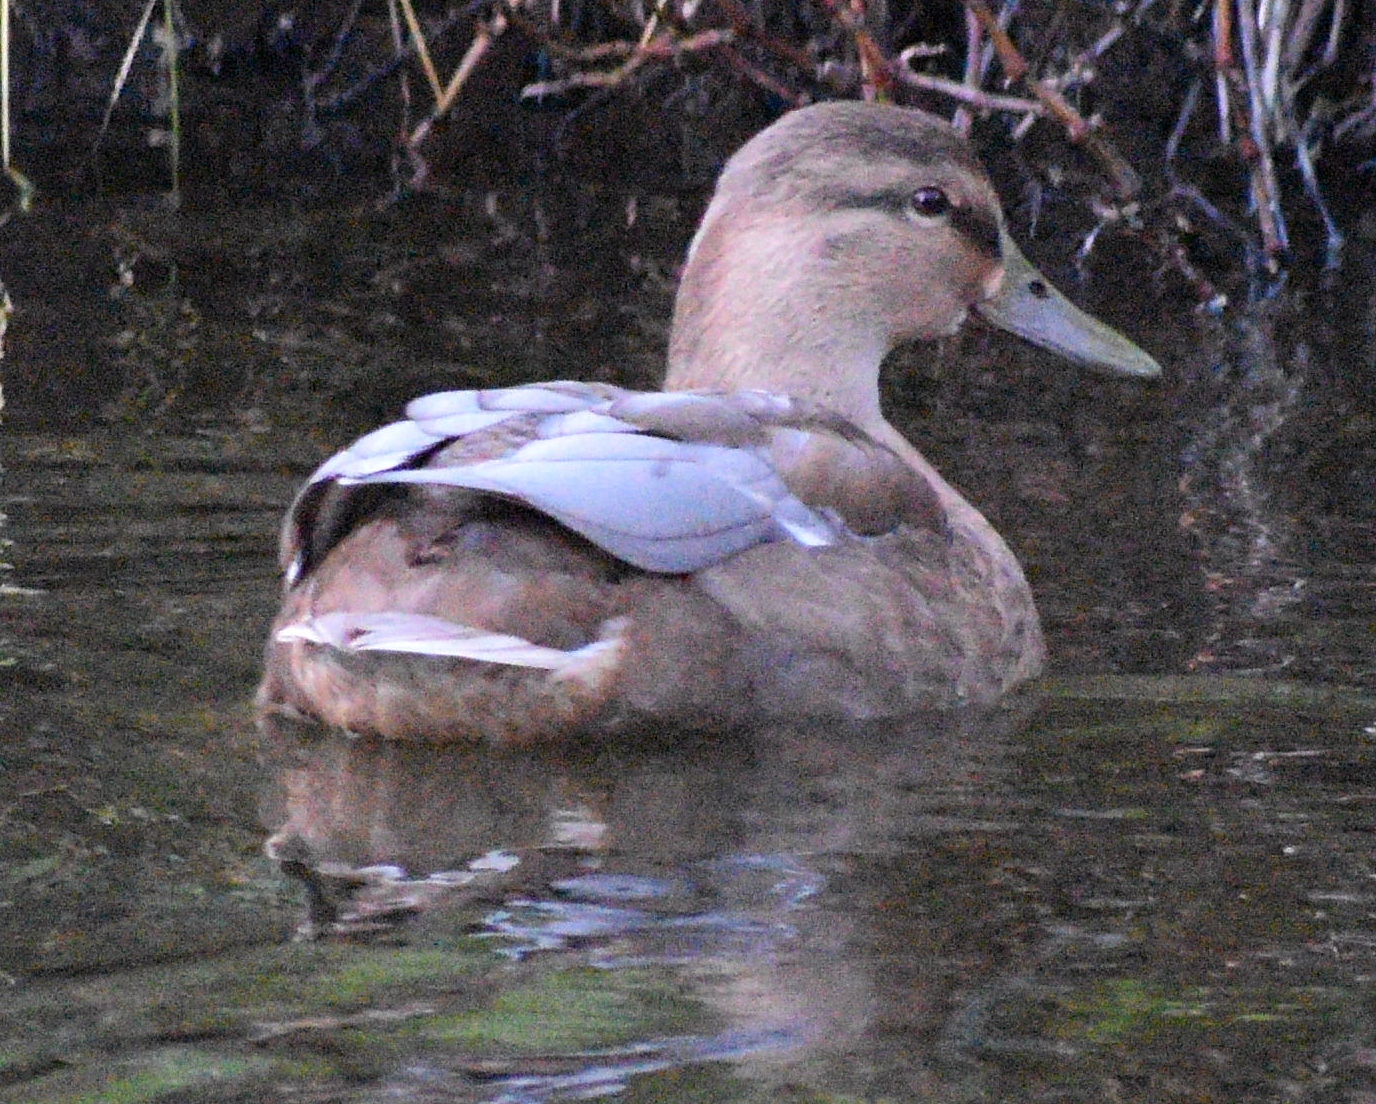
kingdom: Animalia
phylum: Chordata
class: Aves
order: Anseriformes
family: Anatidae
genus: Anas
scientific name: Anas platyrhynchos
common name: Mallard
